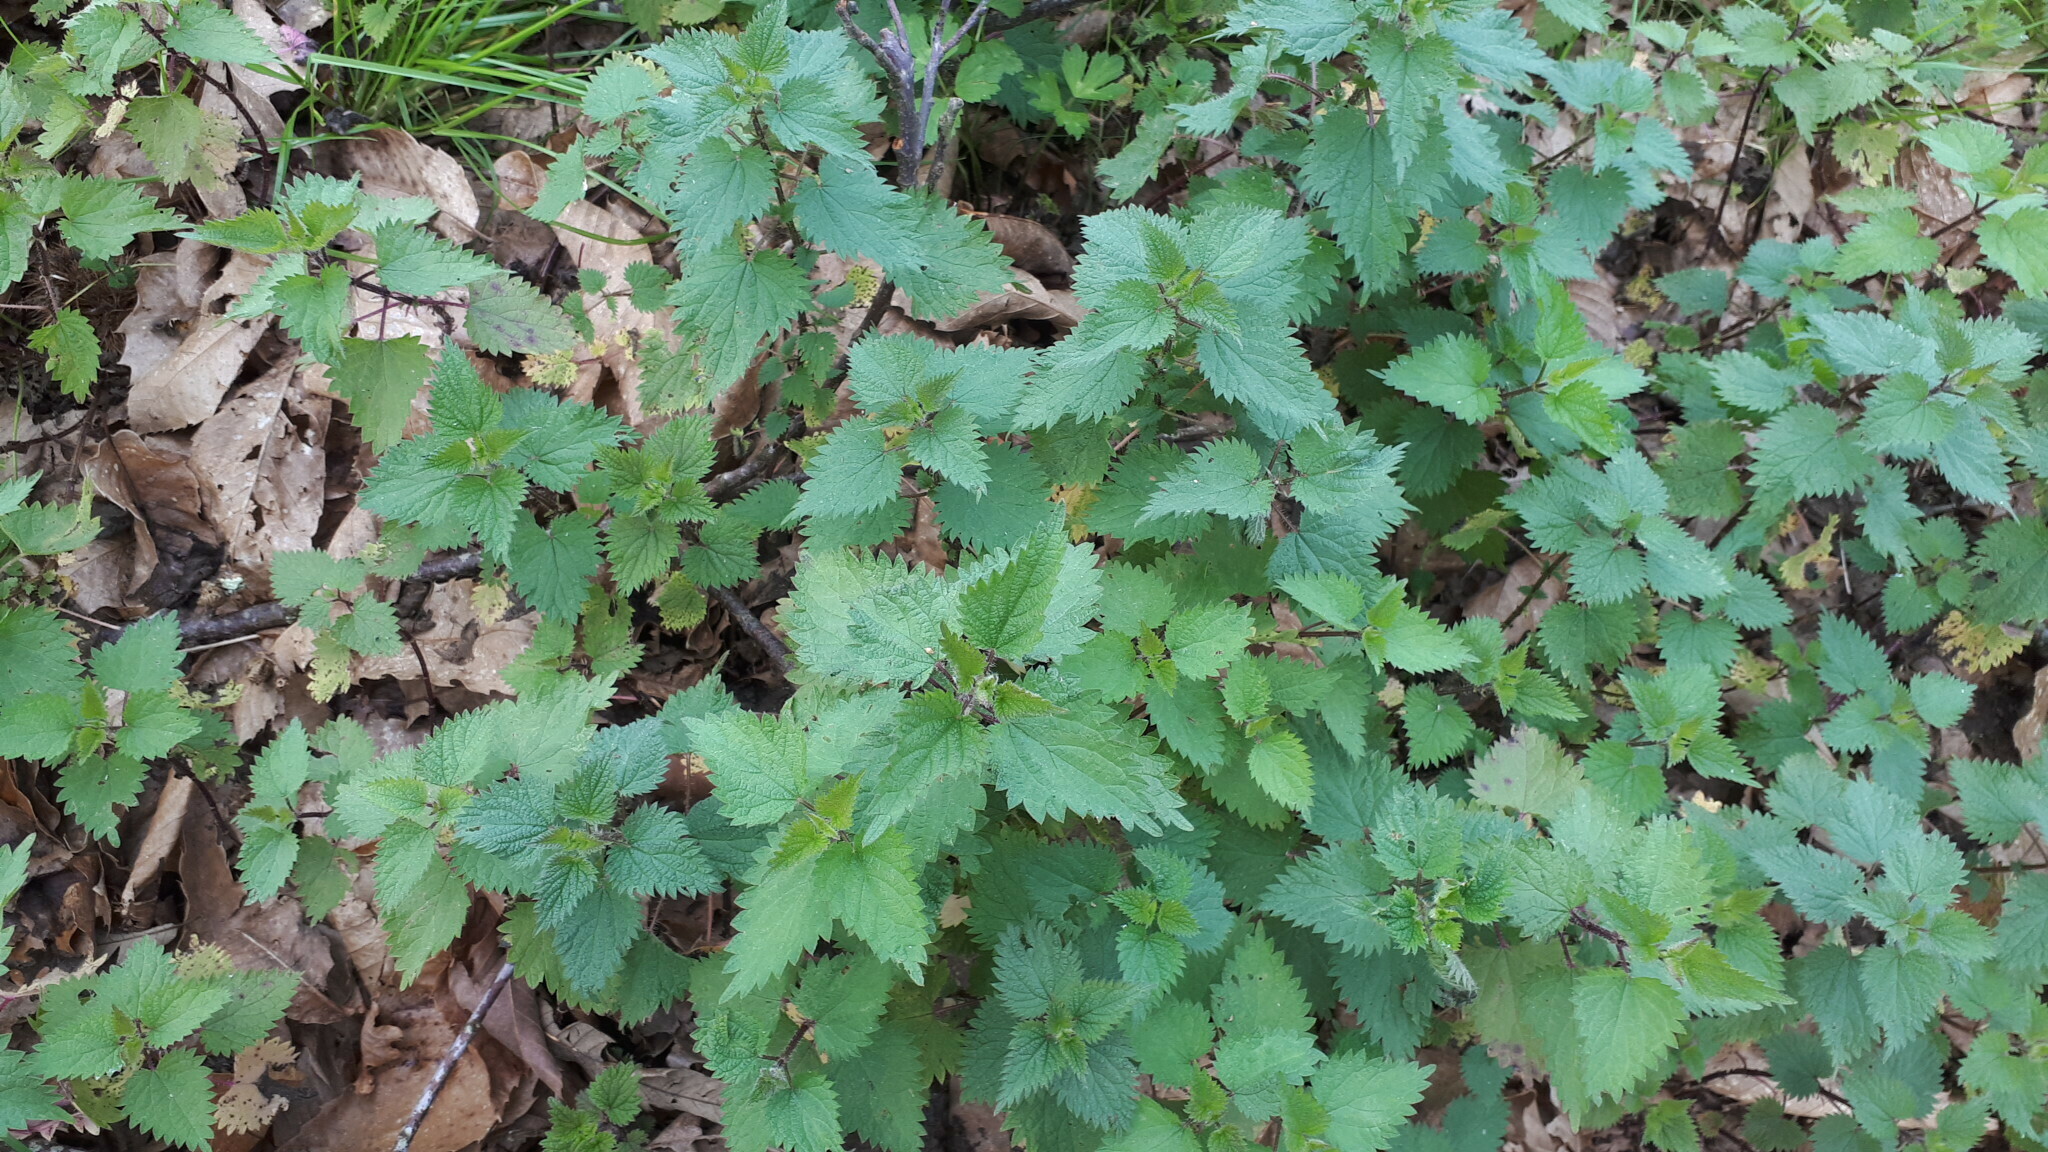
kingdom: Plantae
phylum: Tracheophyta
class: Magnoliopsida
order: Rosales
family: Urticaceae
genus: Urtica
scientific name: Urtica dioica
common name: Common nettle
